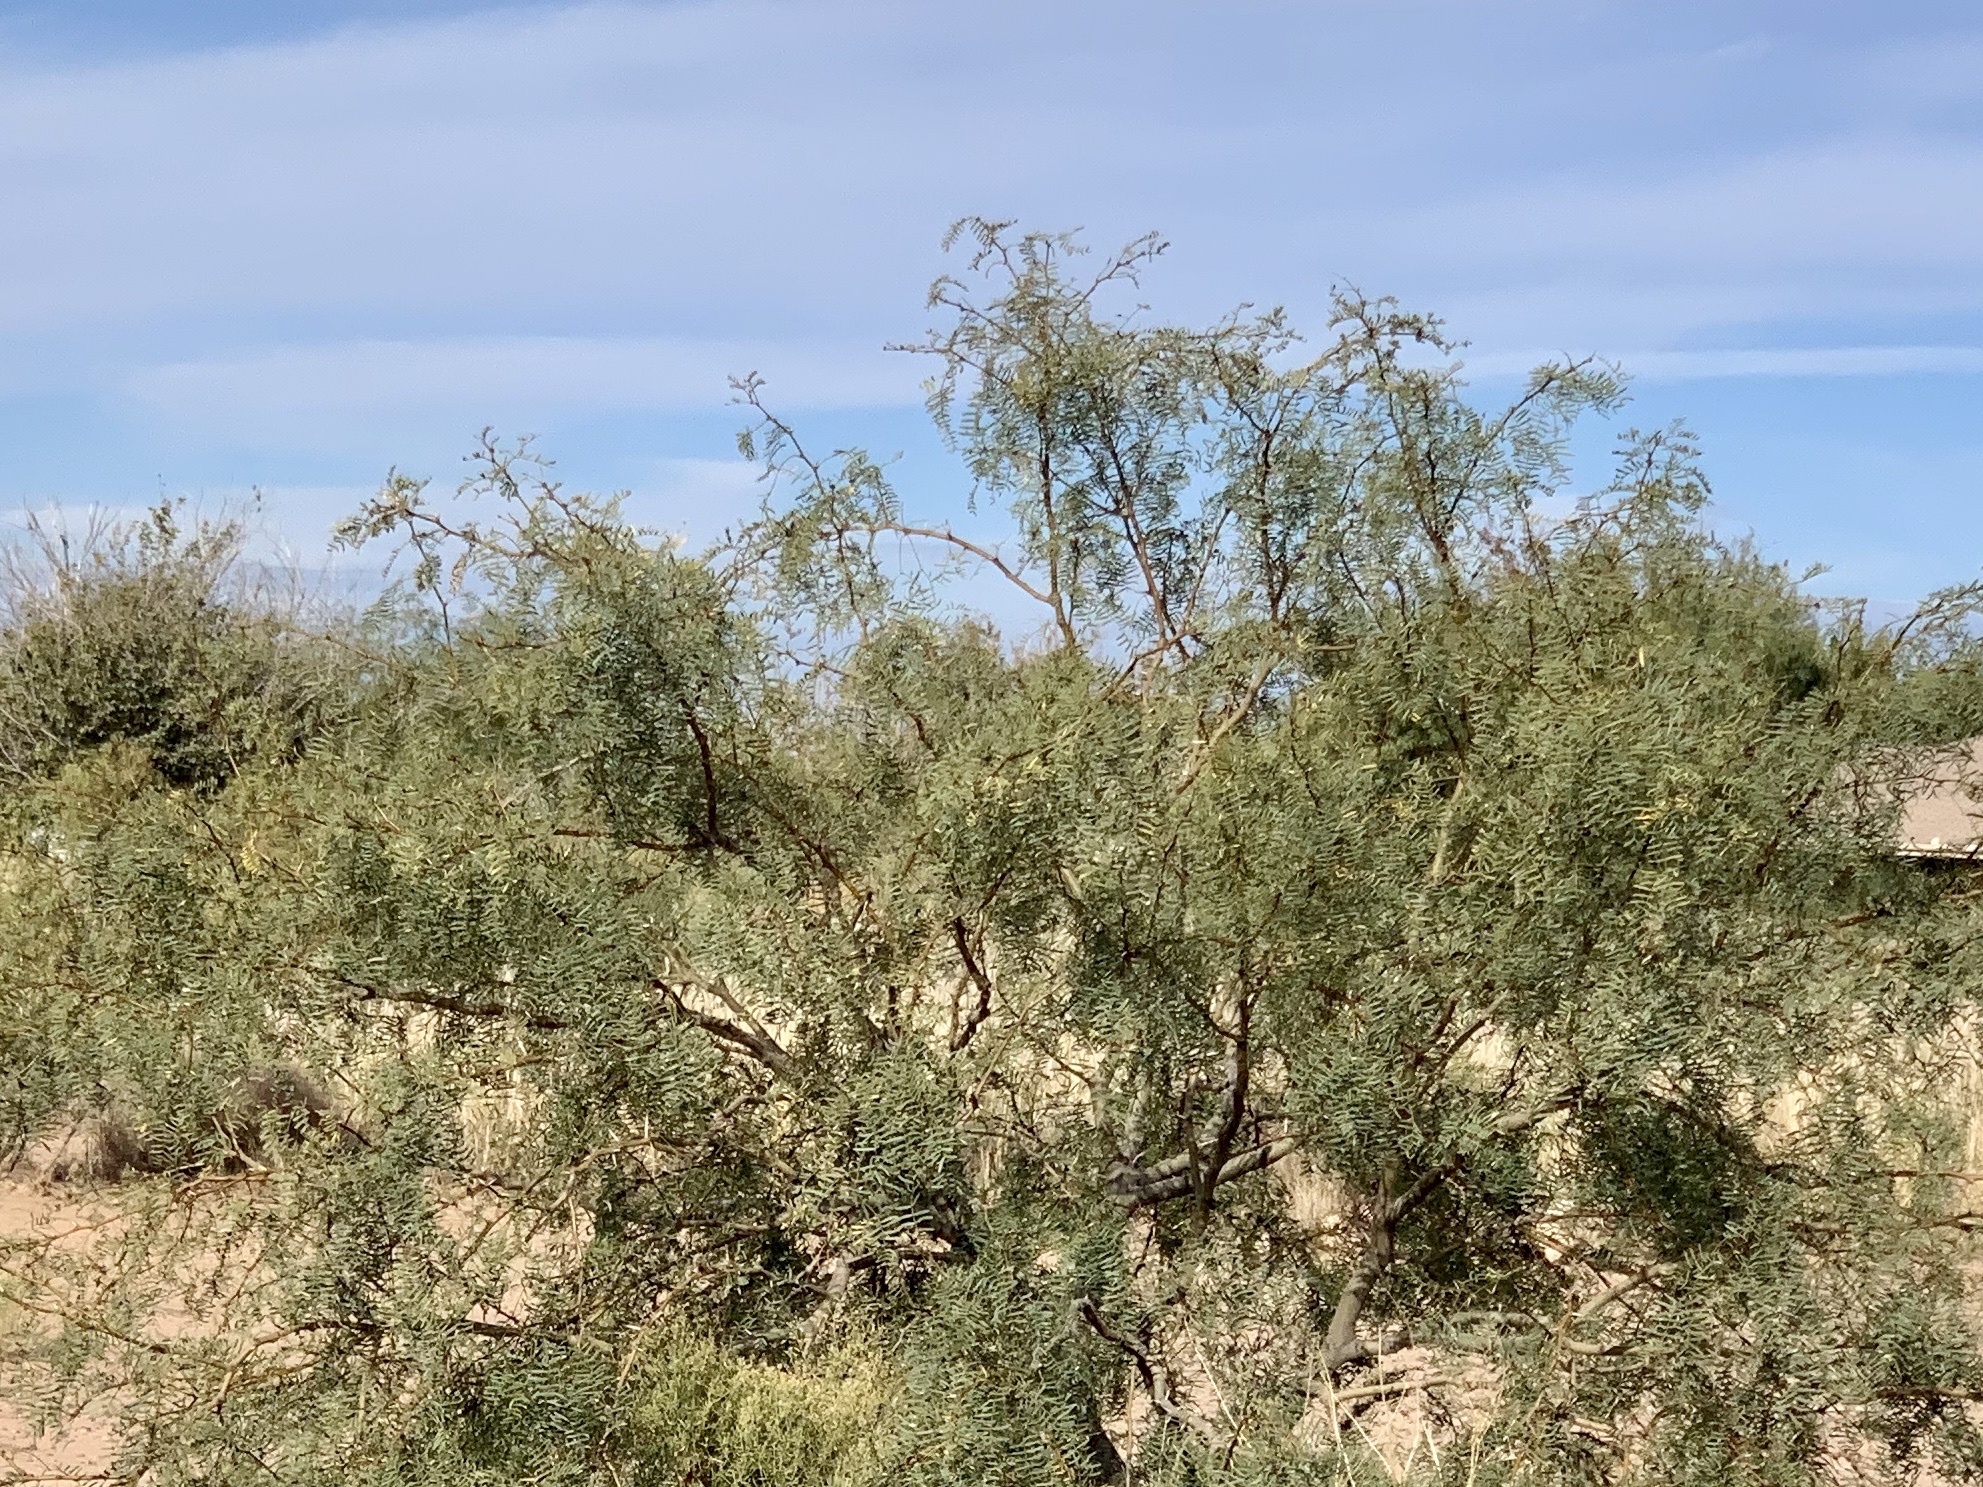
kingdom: Plantae
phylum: Tracheophyta
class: Magnoliopsida
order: Fabales
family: Fabaceae
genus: Prosopis
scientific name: Prosopis glandulosa
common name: Honey mesquite
